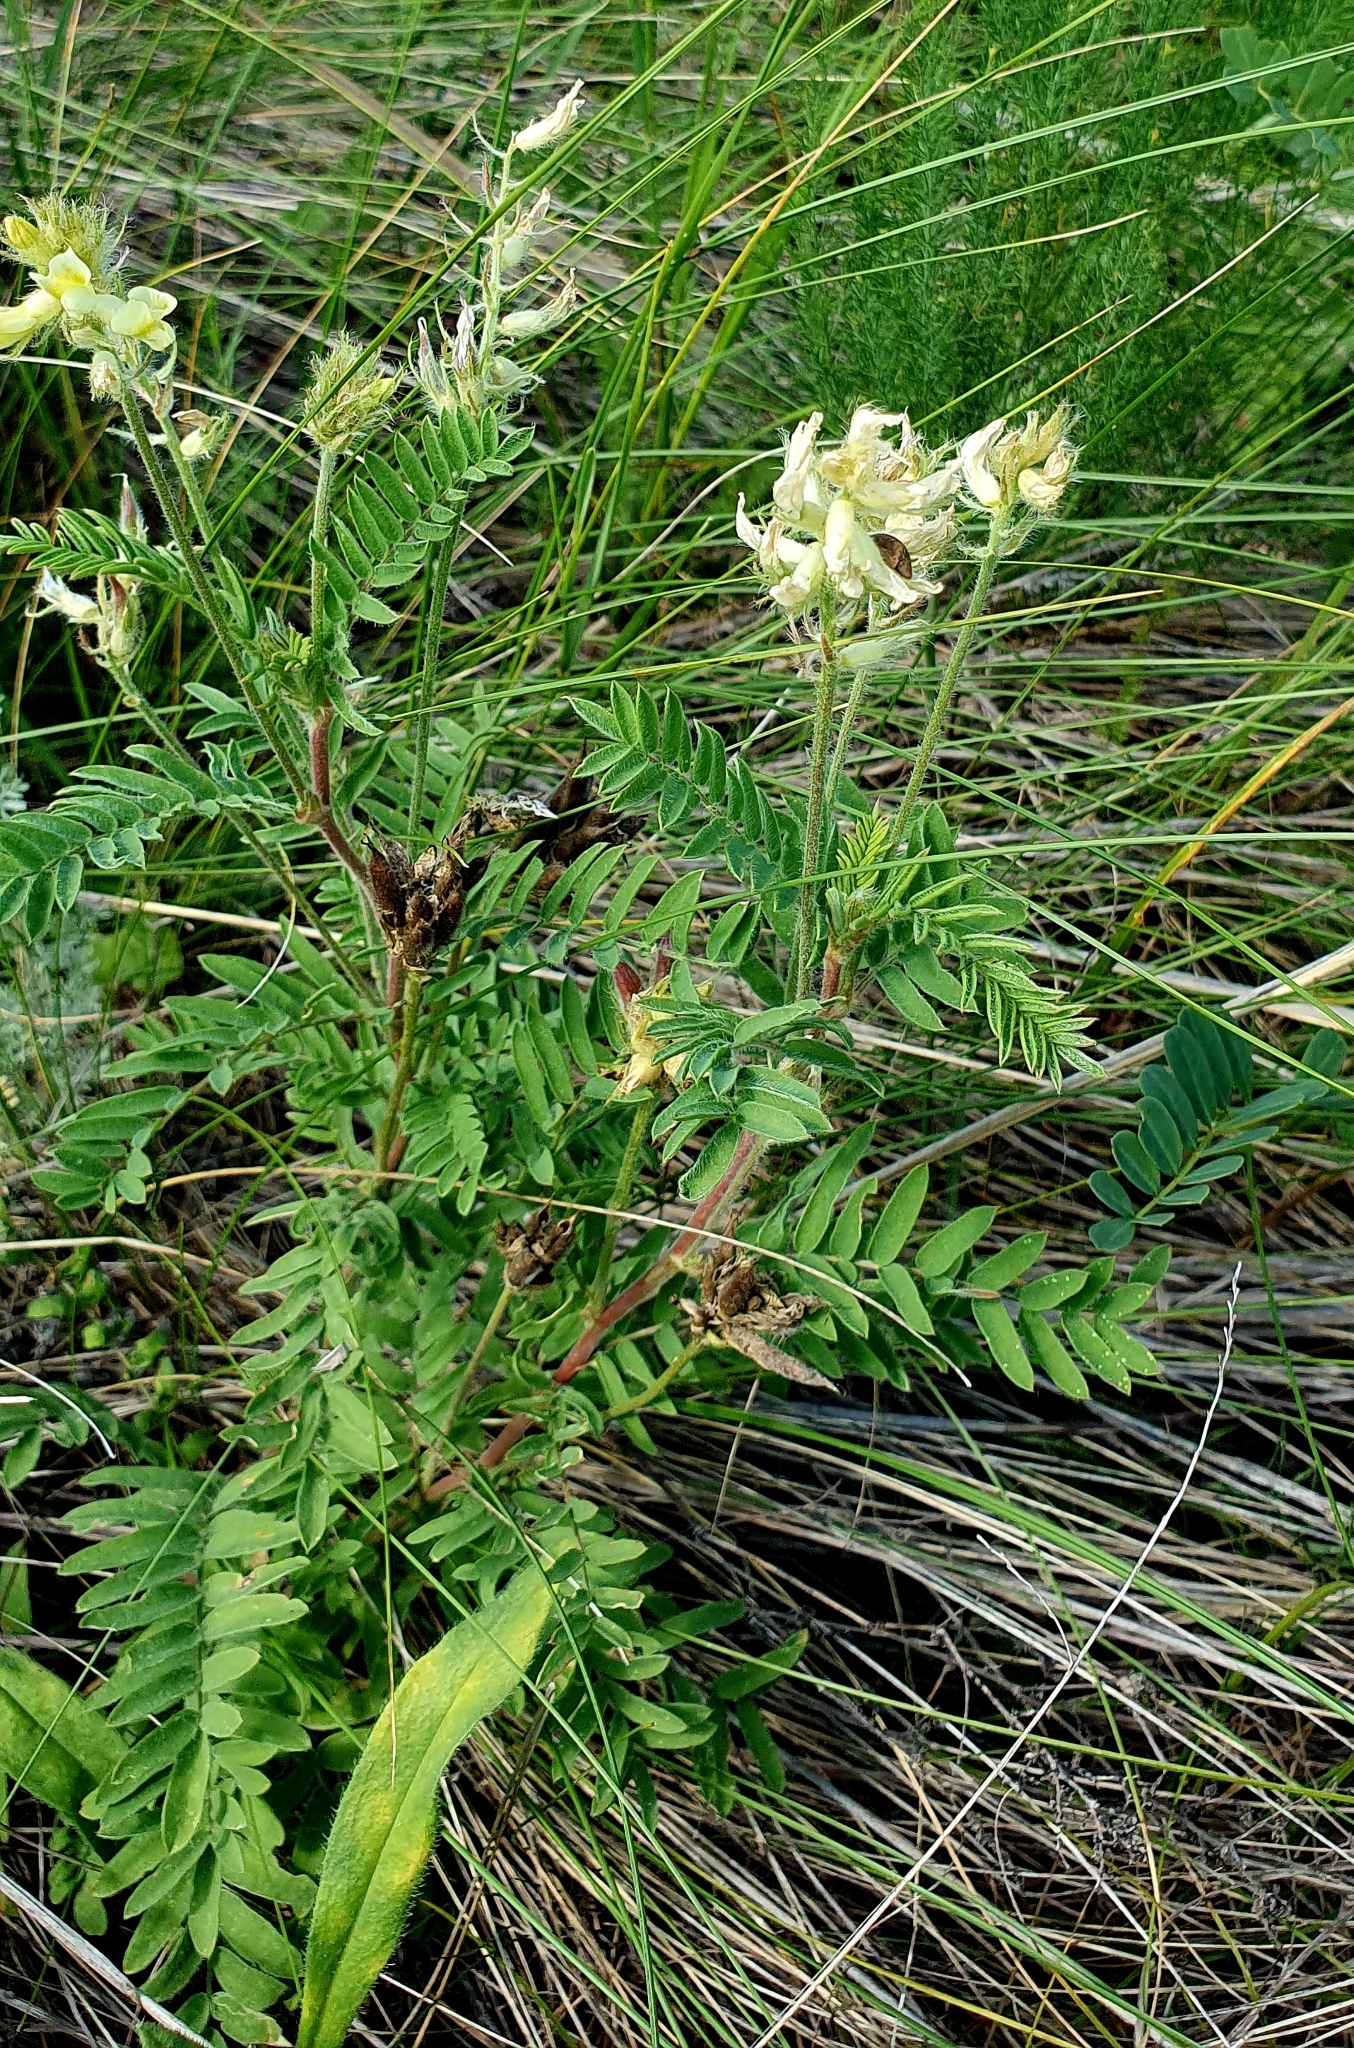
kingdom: Plantae
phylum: Tracheophyta
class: Magnoliopsida
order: Fabales
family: Fabaceae
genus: Oxytropis
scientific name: Oxytropis pilosa
